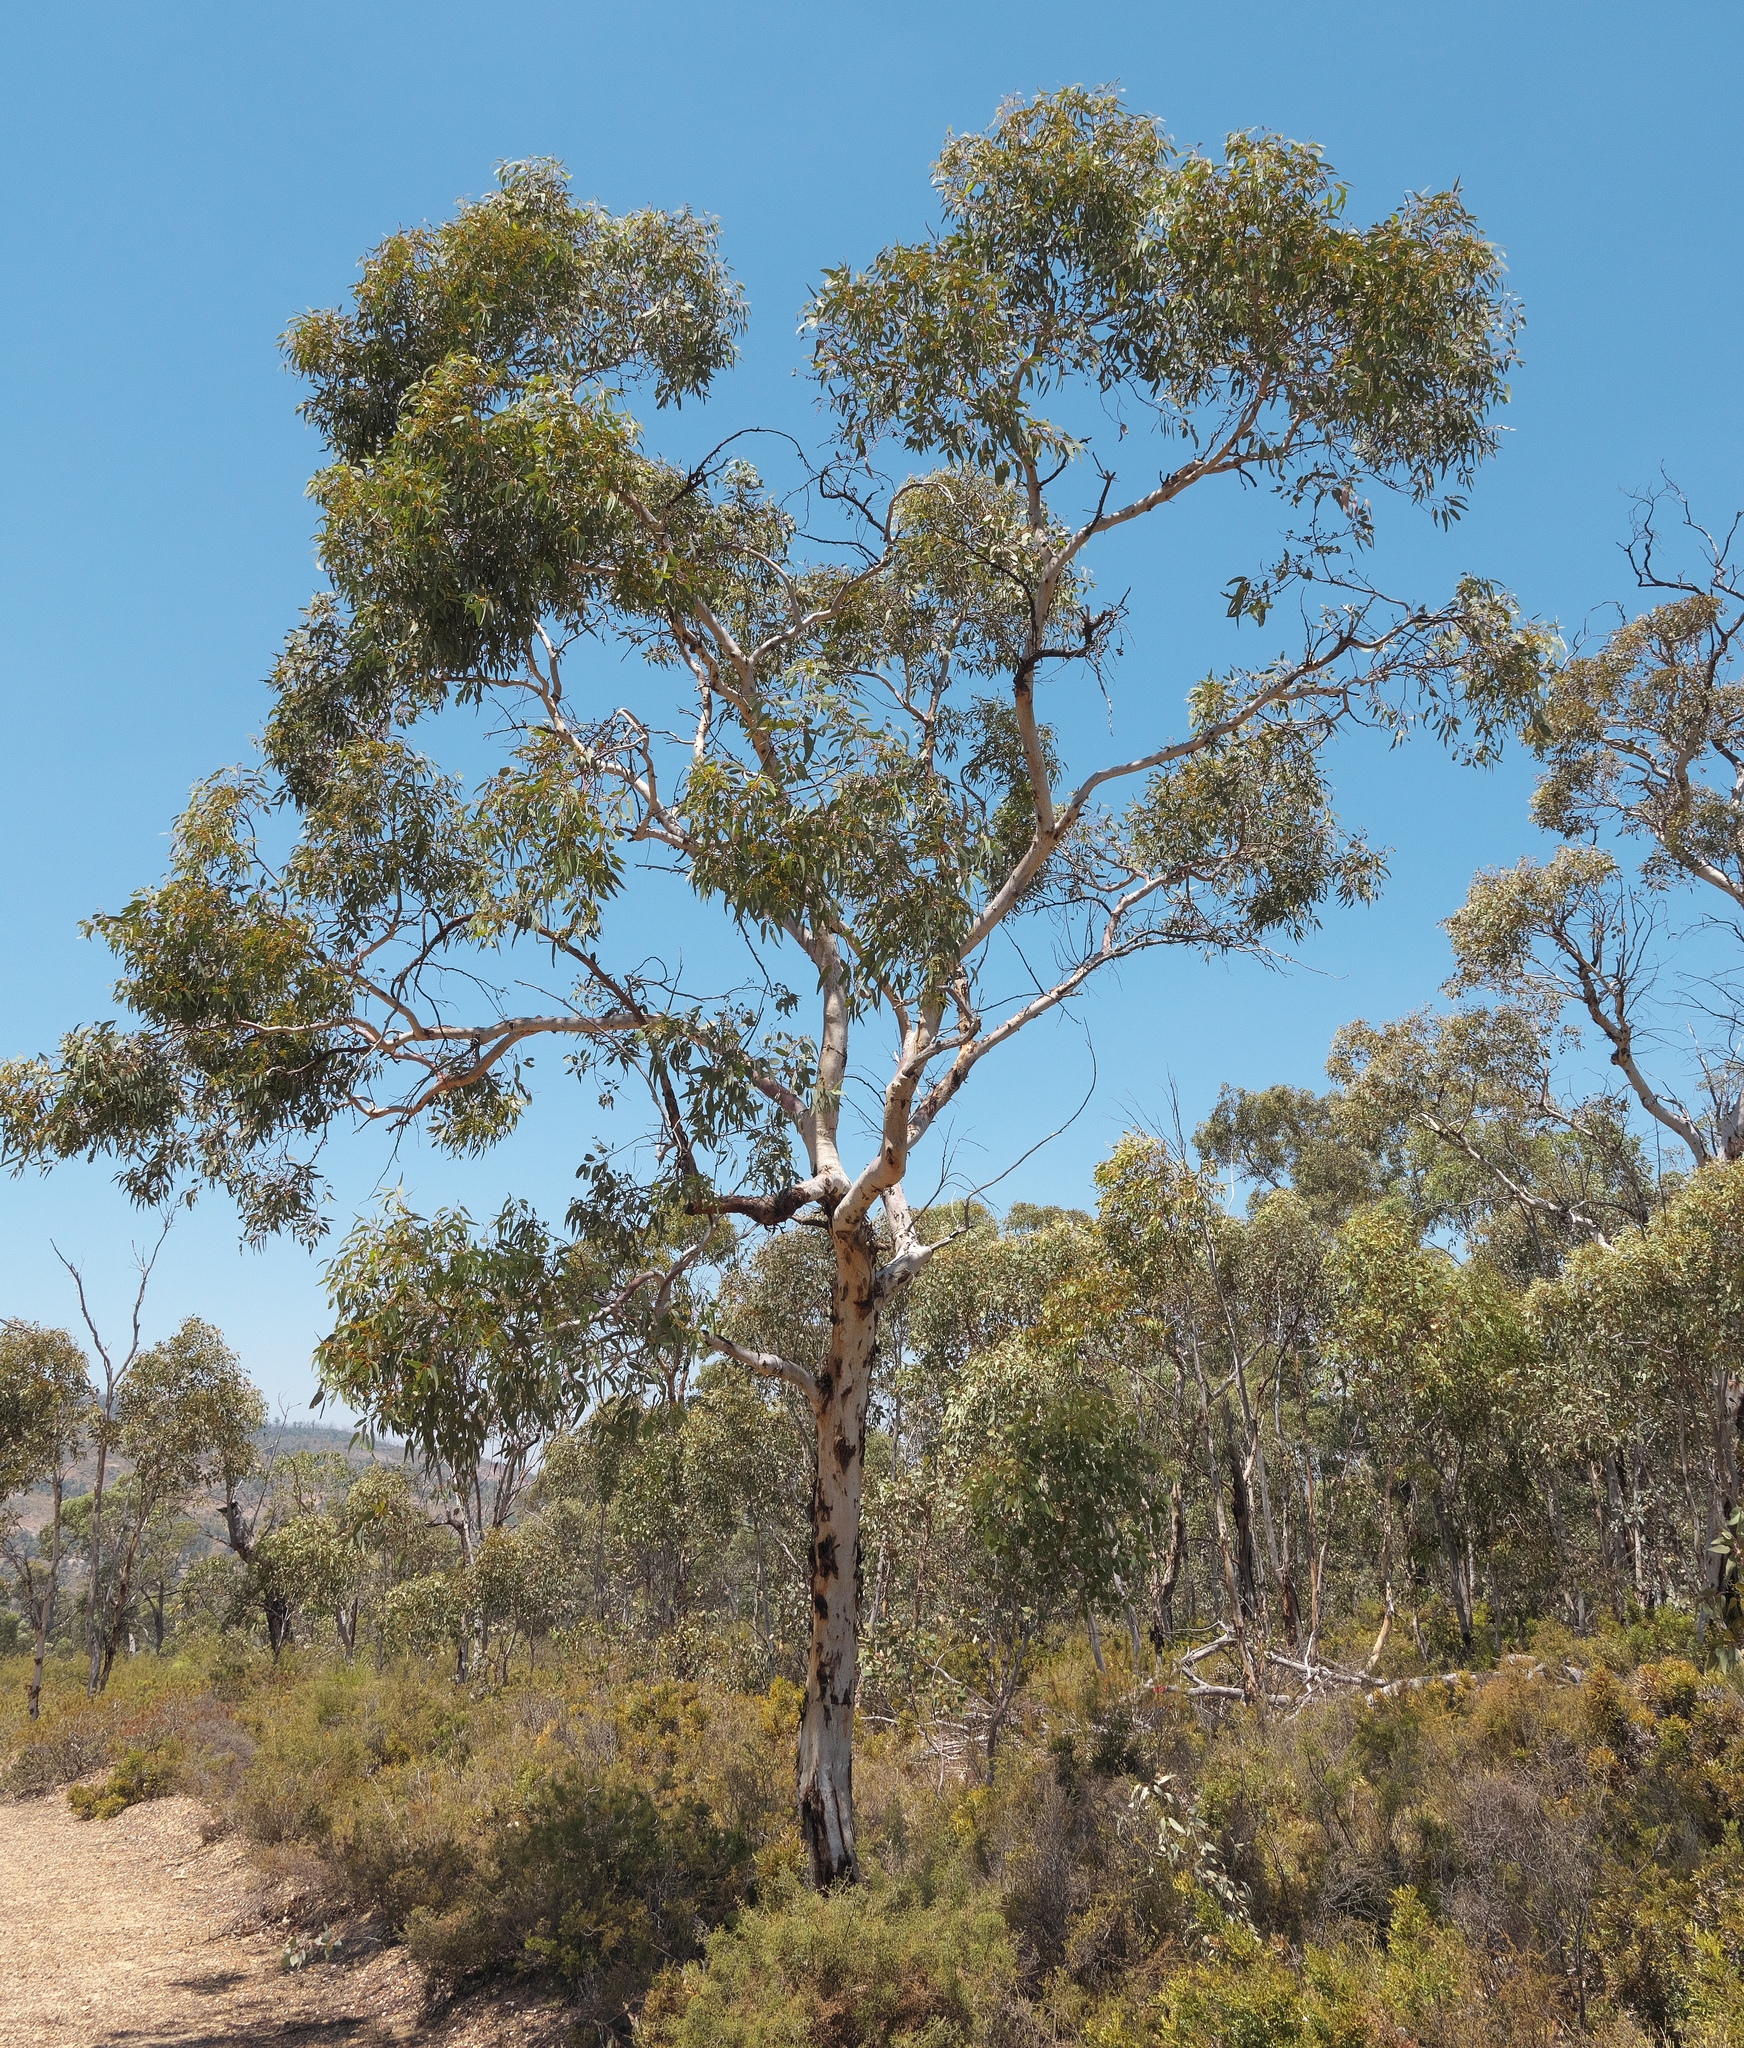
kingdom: Plantae
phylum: Tracheophyta
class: Magnoliopsida
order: Myrtales
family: Myrtaceae
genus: Eucalyptus
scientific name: Eucalyptus accedens
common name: Powder-bark wandoo
